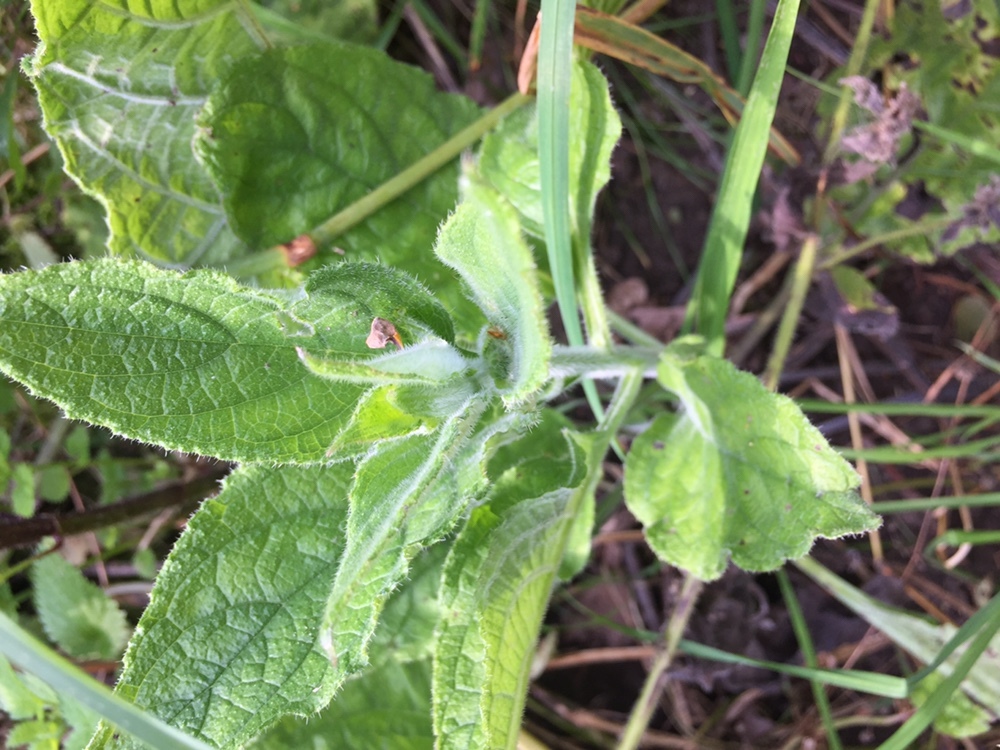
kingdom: Plantae
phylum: Tracheophyta
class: Magnoliopsida
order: Boraginales
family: Boraginaceae
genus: Pentaglottis
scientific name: Pentaglottis sempervirens
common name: Green alkanet
